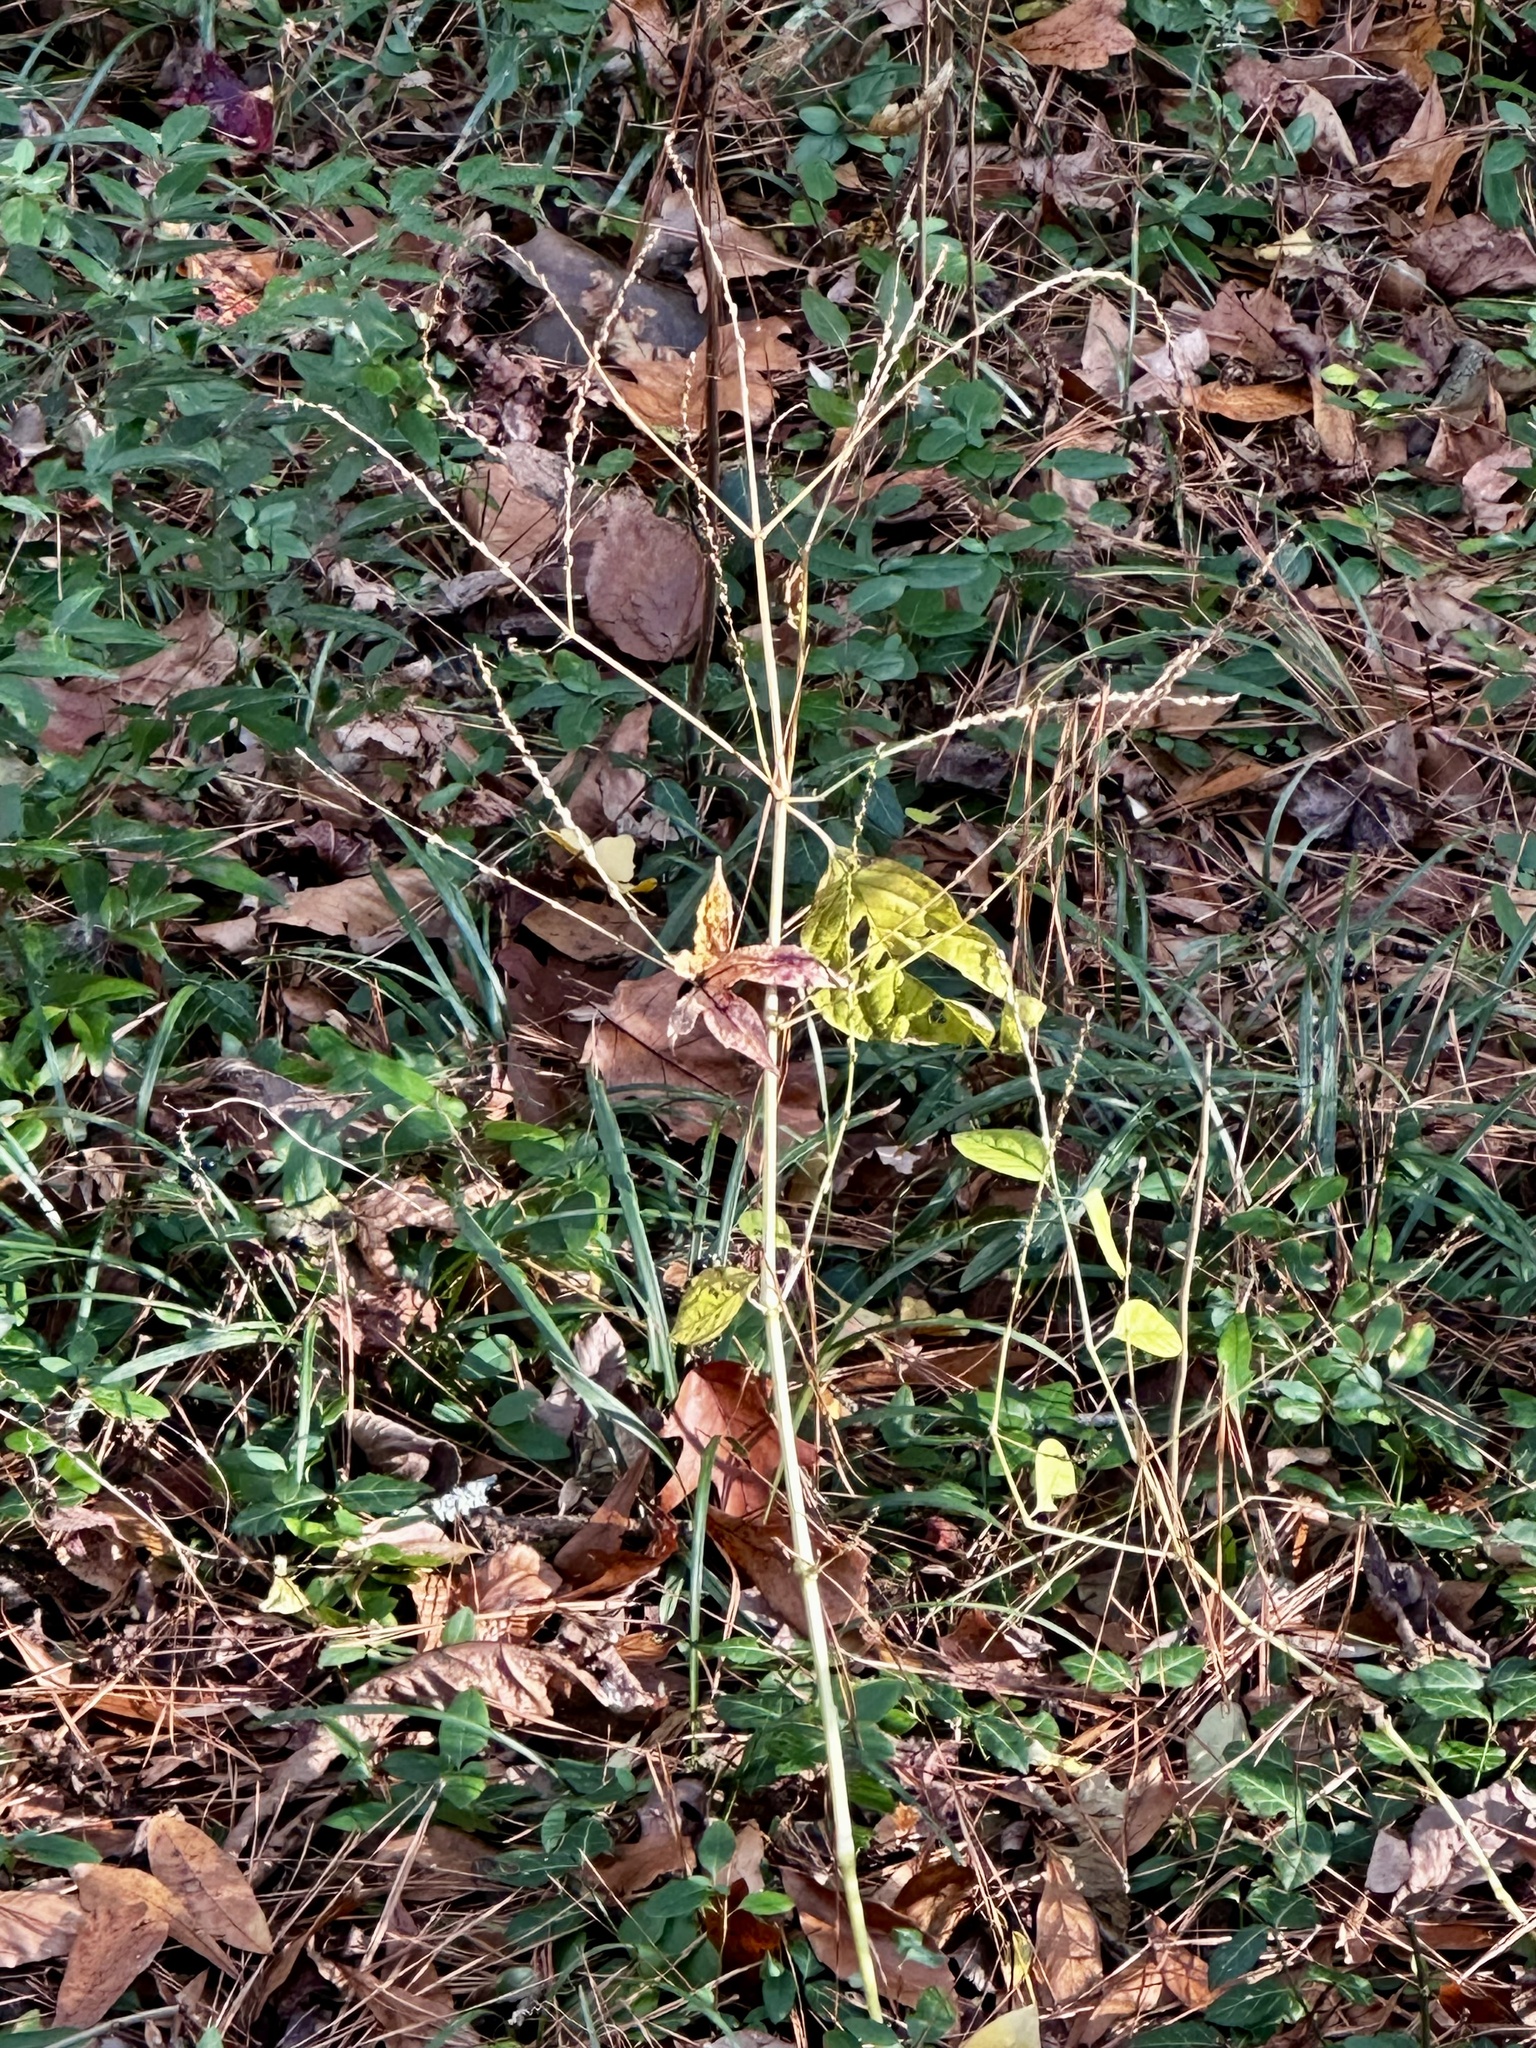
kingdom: Plantae
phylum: Tracheophyta
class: Magnoliopsida
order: Caryophyllales
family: Amaranthaceae
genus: Achyranthes
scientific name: Achyranthes bidentata
